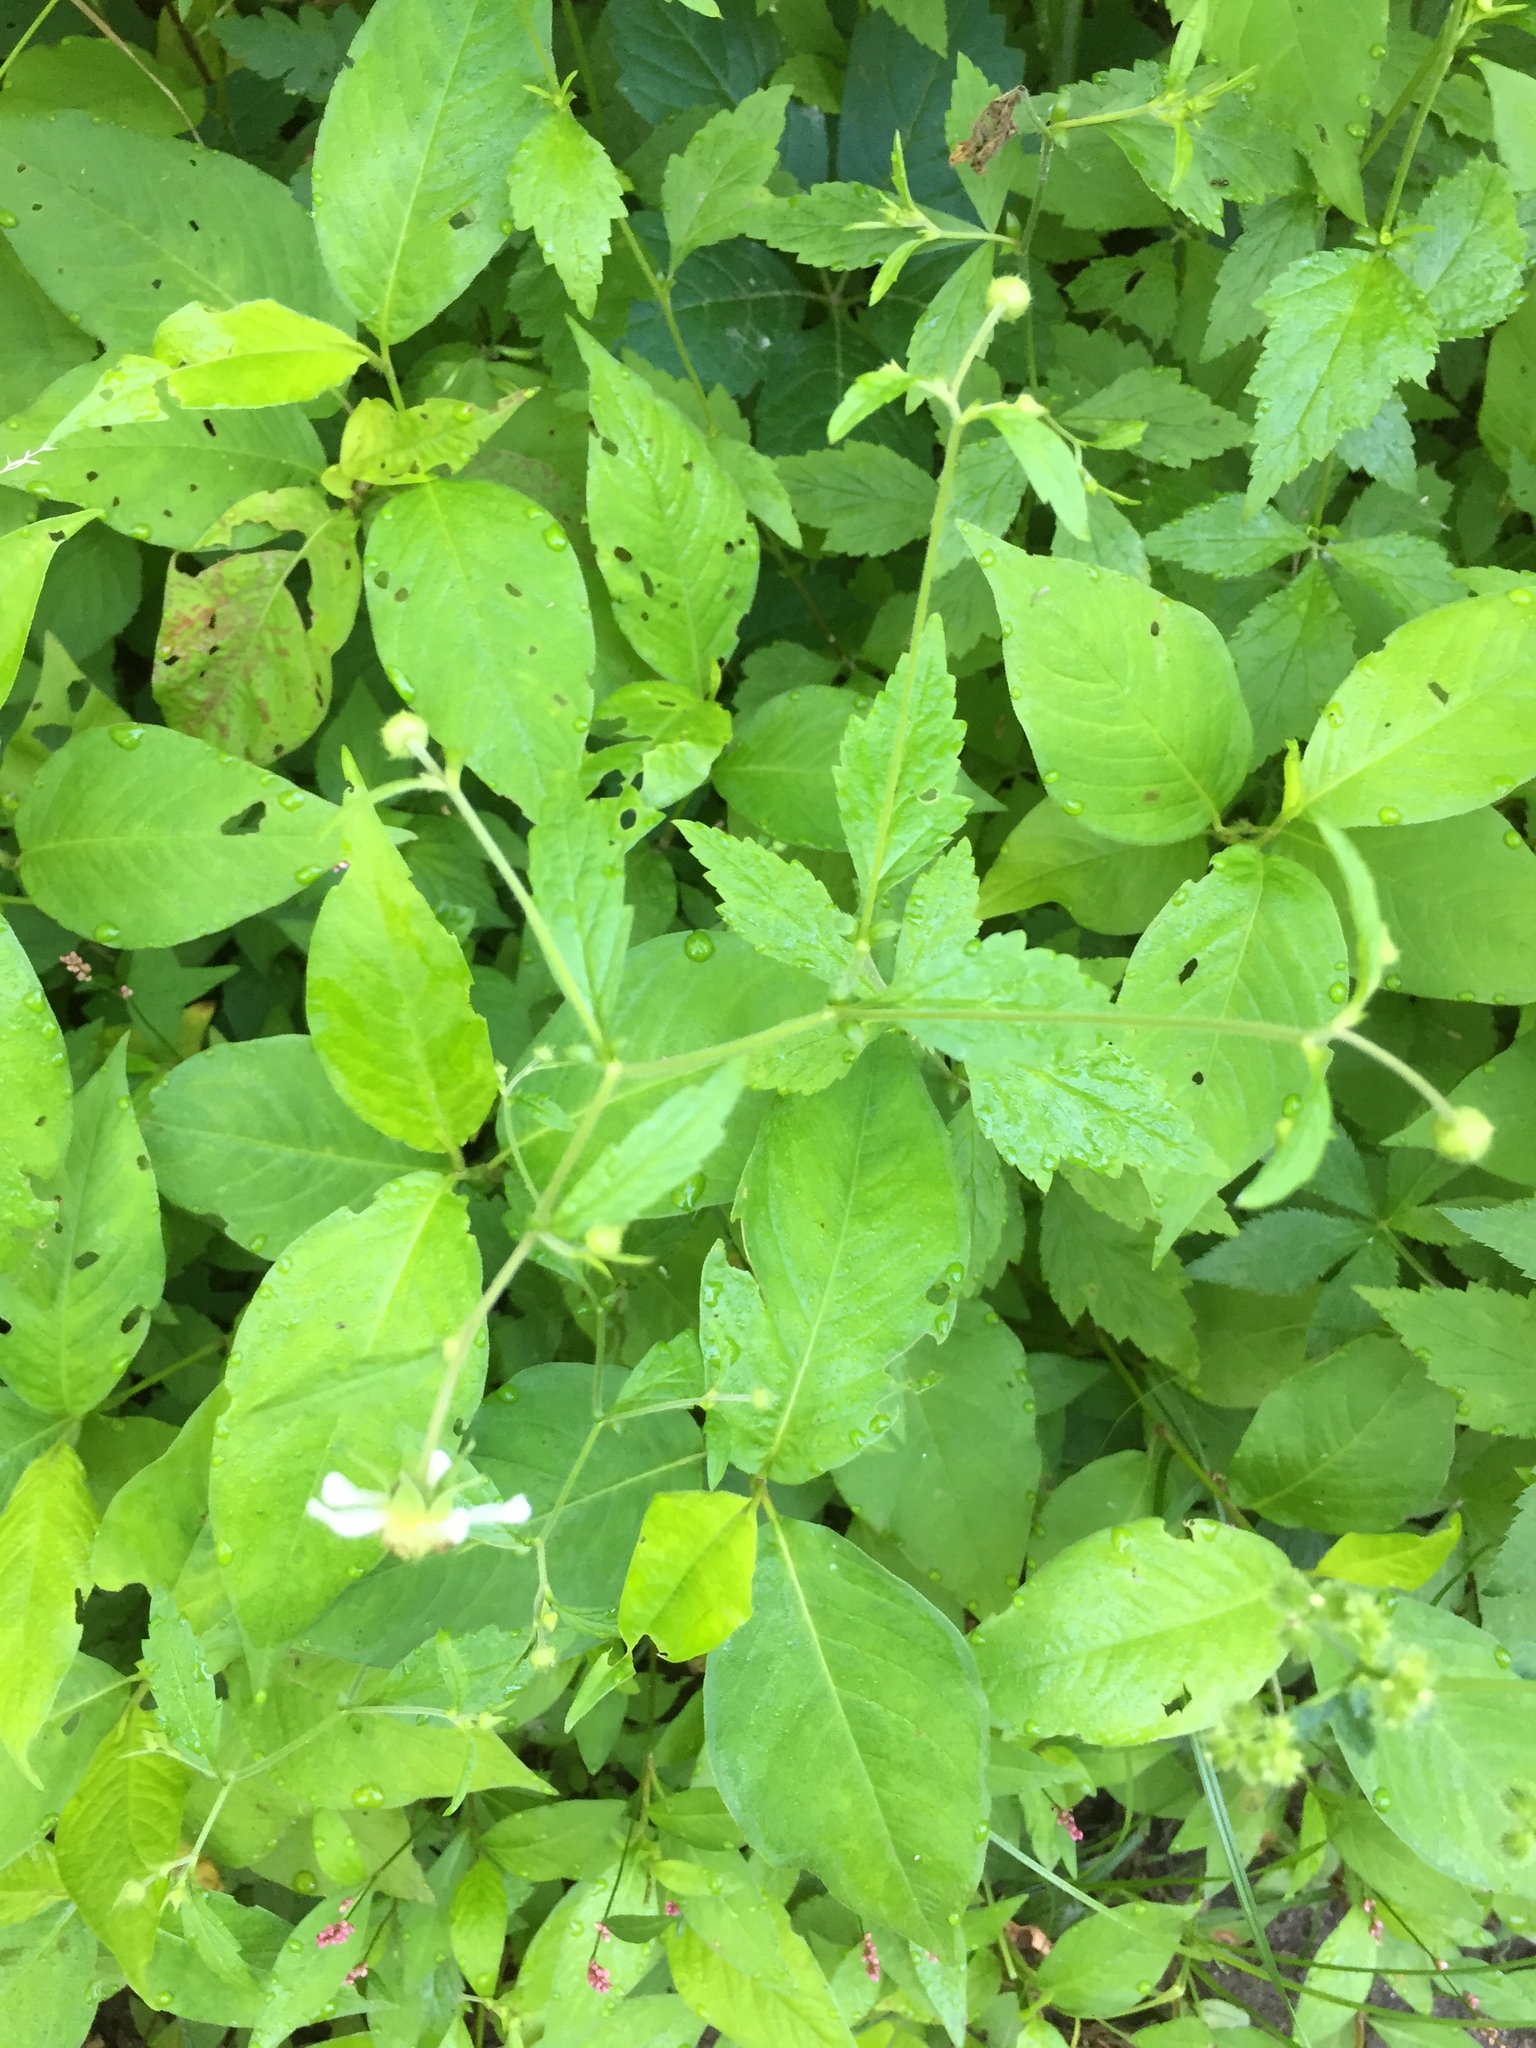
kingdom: Plantae
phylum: Tracheophyta
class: Magnoliopsida
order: Rosales
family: Rosaceae
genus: Geum
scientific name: Geum canadense
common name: White avens
